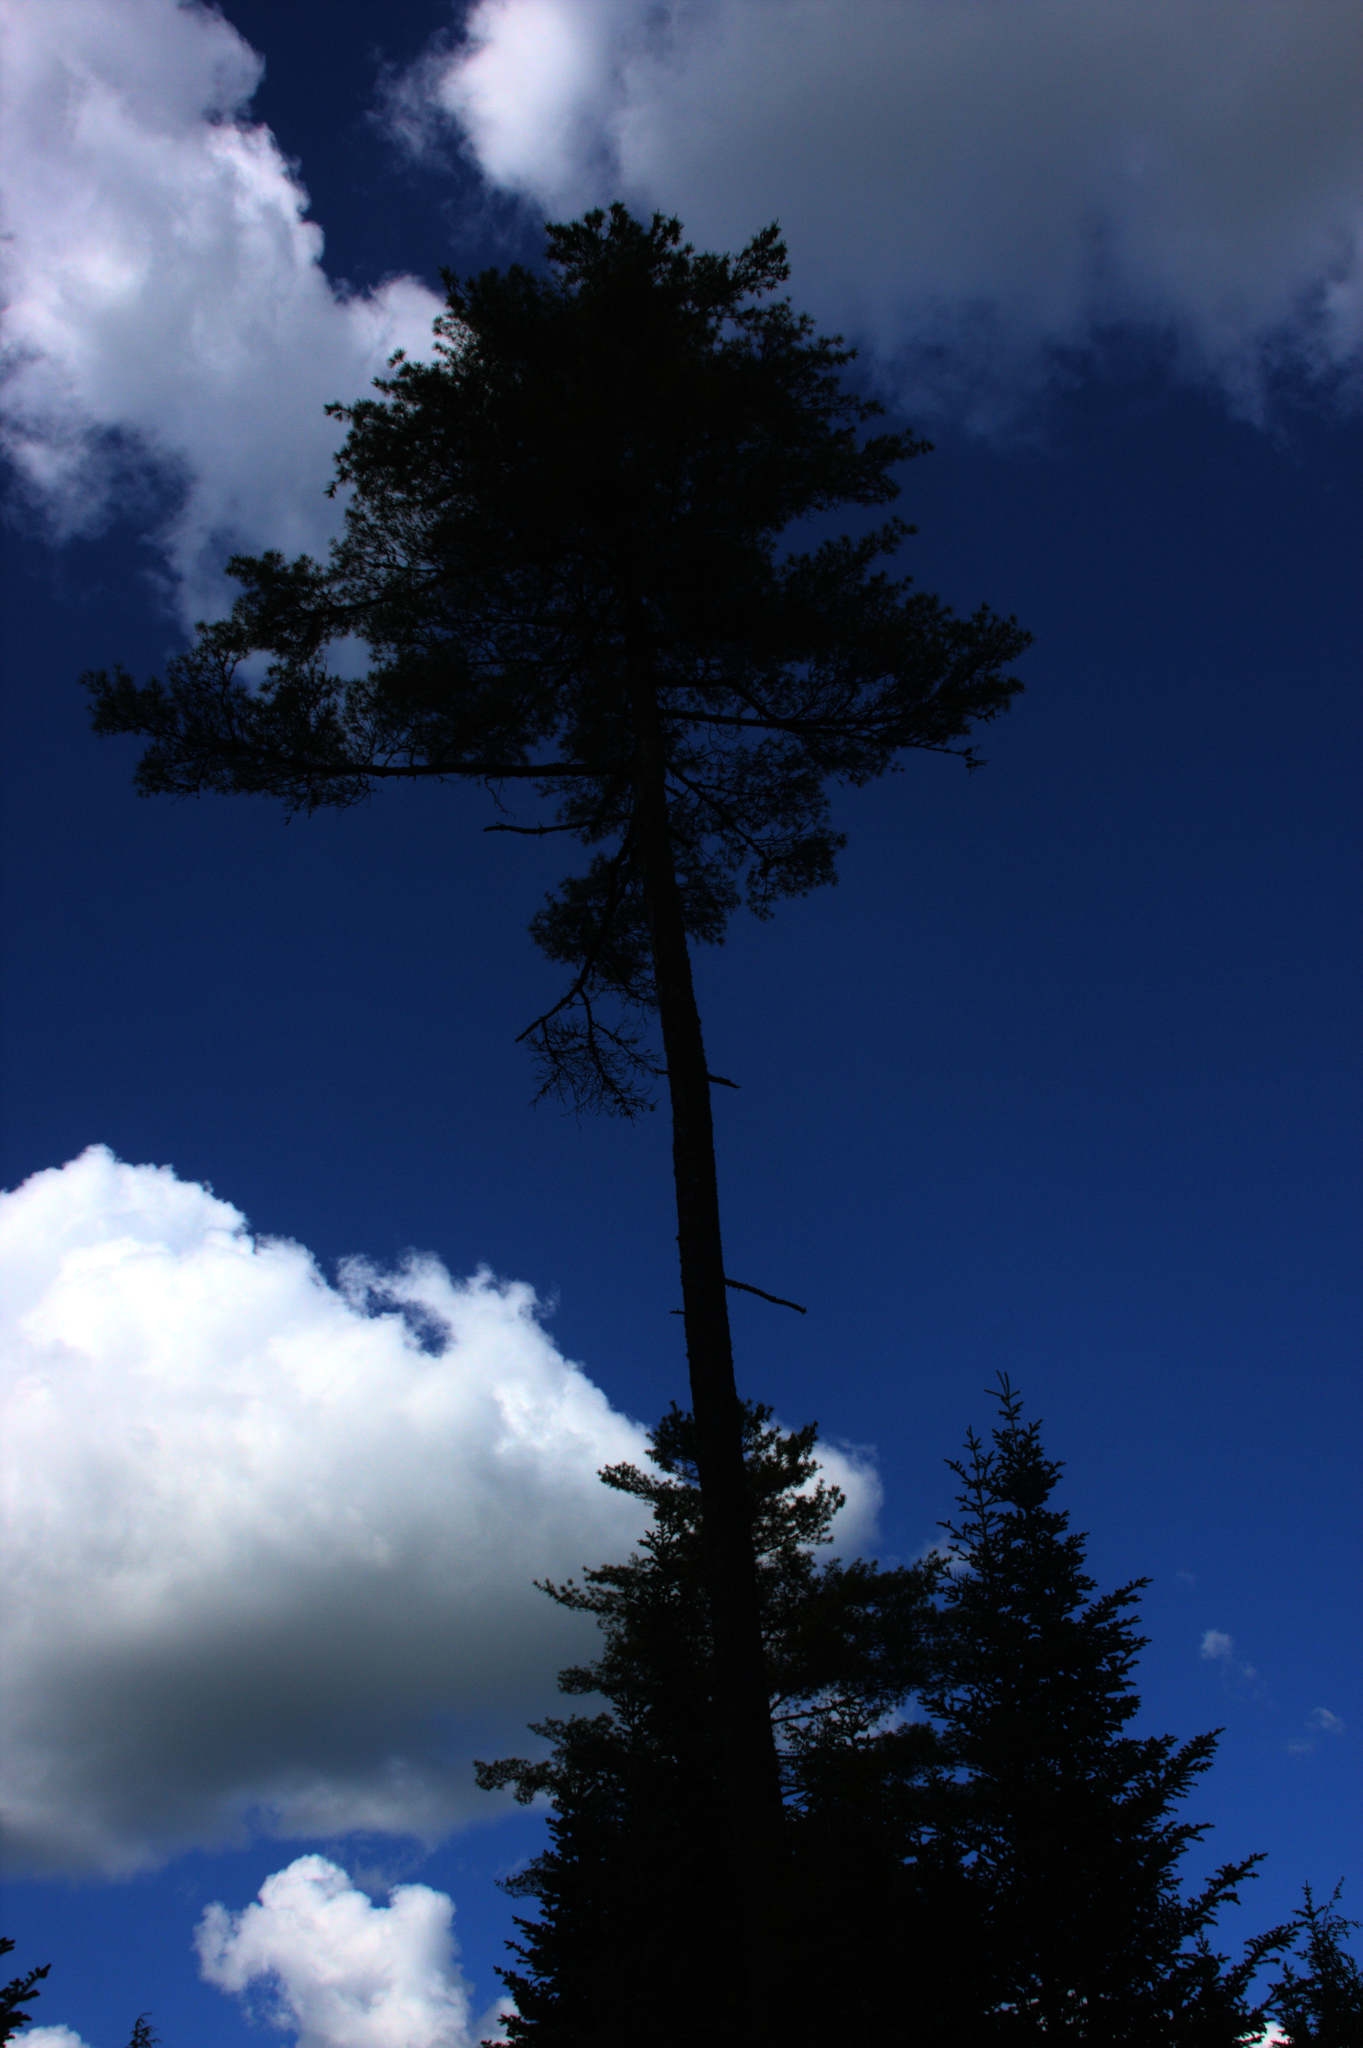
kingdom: Plantae
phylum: Tracheophyta
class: Pinopsida
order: Pinales
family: Pinaceae
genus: Pinus
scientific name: Pinus strobus
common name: Weymouth pine
